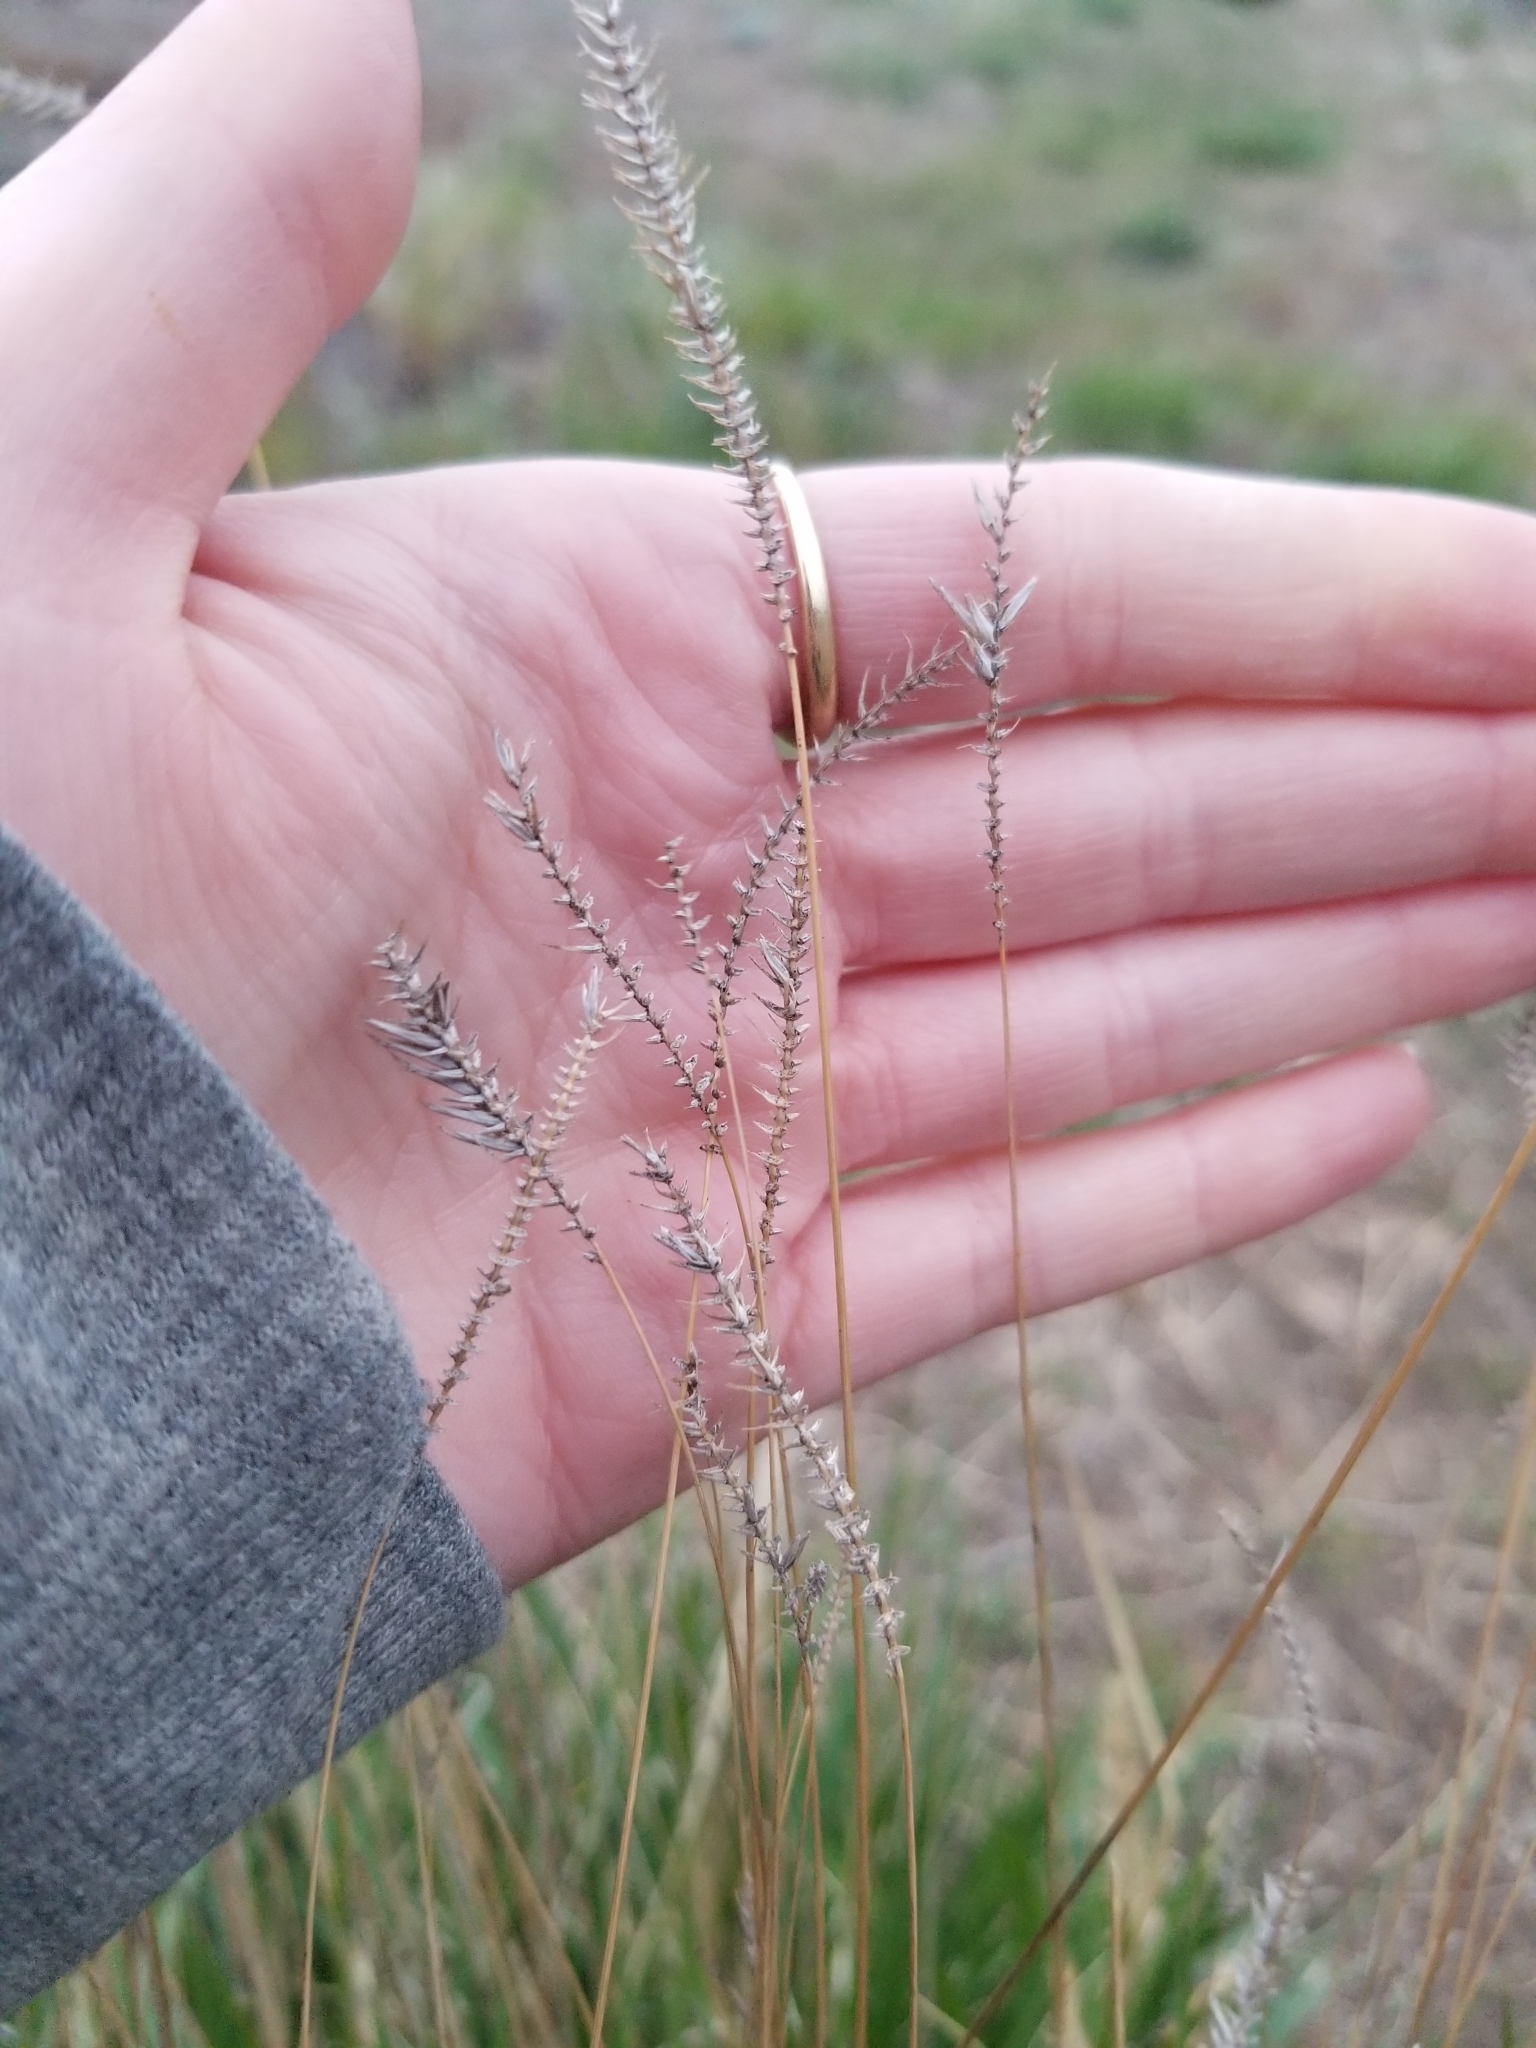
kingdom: Plantae
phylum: Tracheophyta
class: Liliopsida
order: Poales
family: Poaceae
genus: Agropyron
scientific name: Agropyron cristatum
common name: Crested wheatgrass
